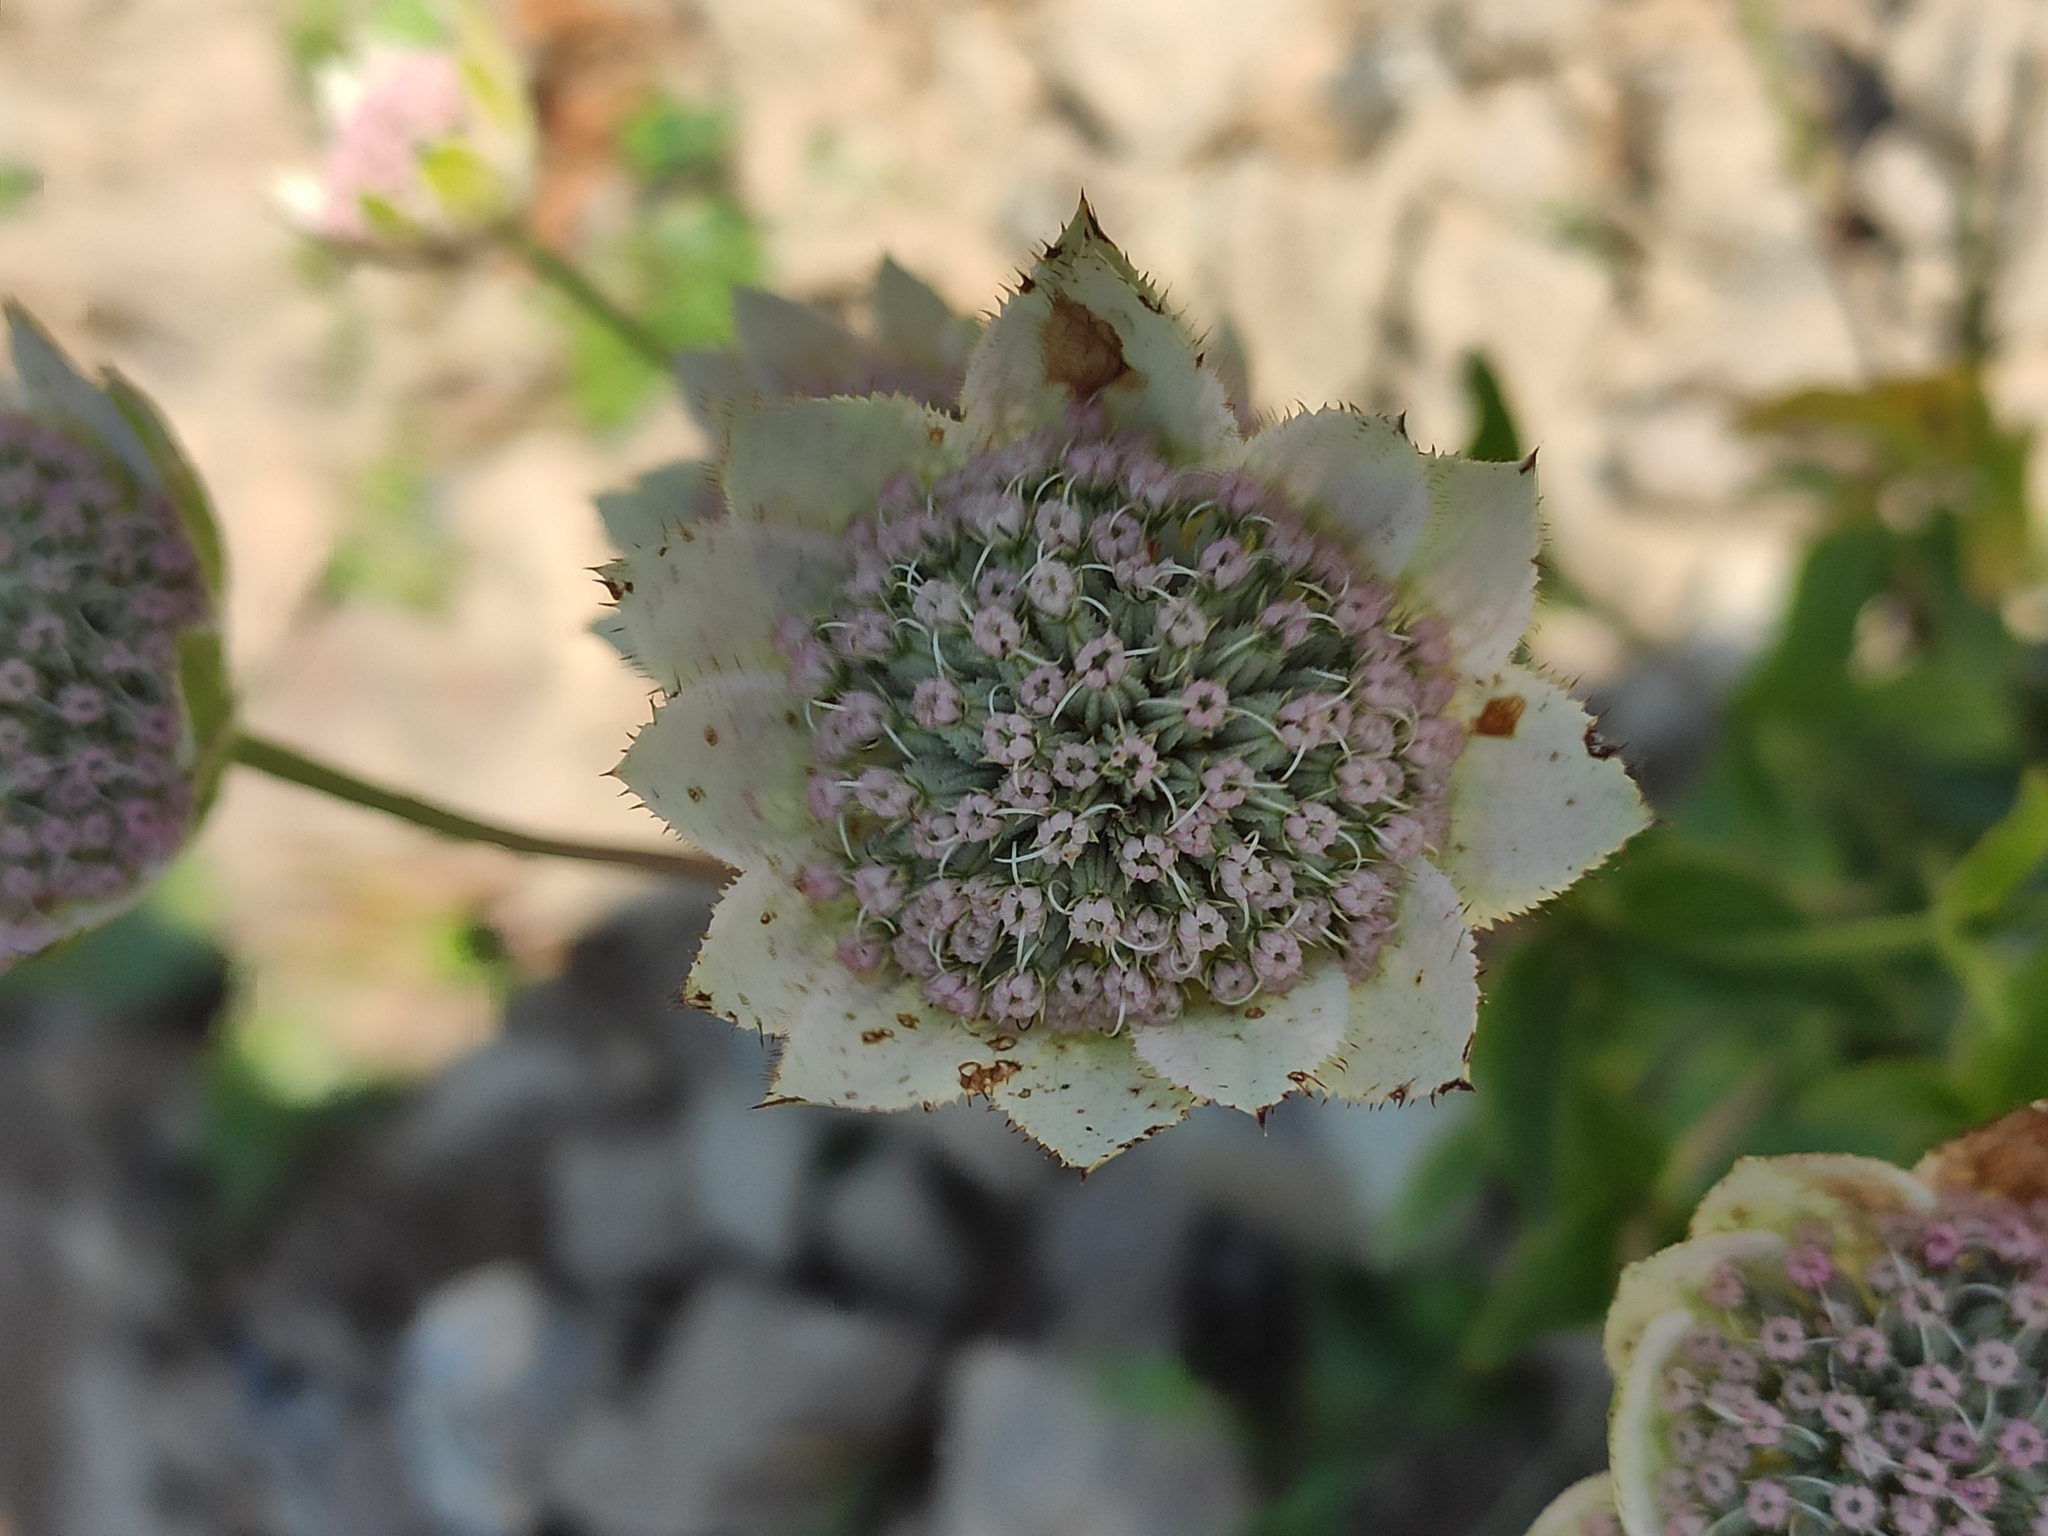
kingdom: Plantae
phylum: Tracheophyta
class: Magnoliopsida
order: Apiales
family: Apiaceae
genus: Astrantia
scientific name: Astrantia maxima
